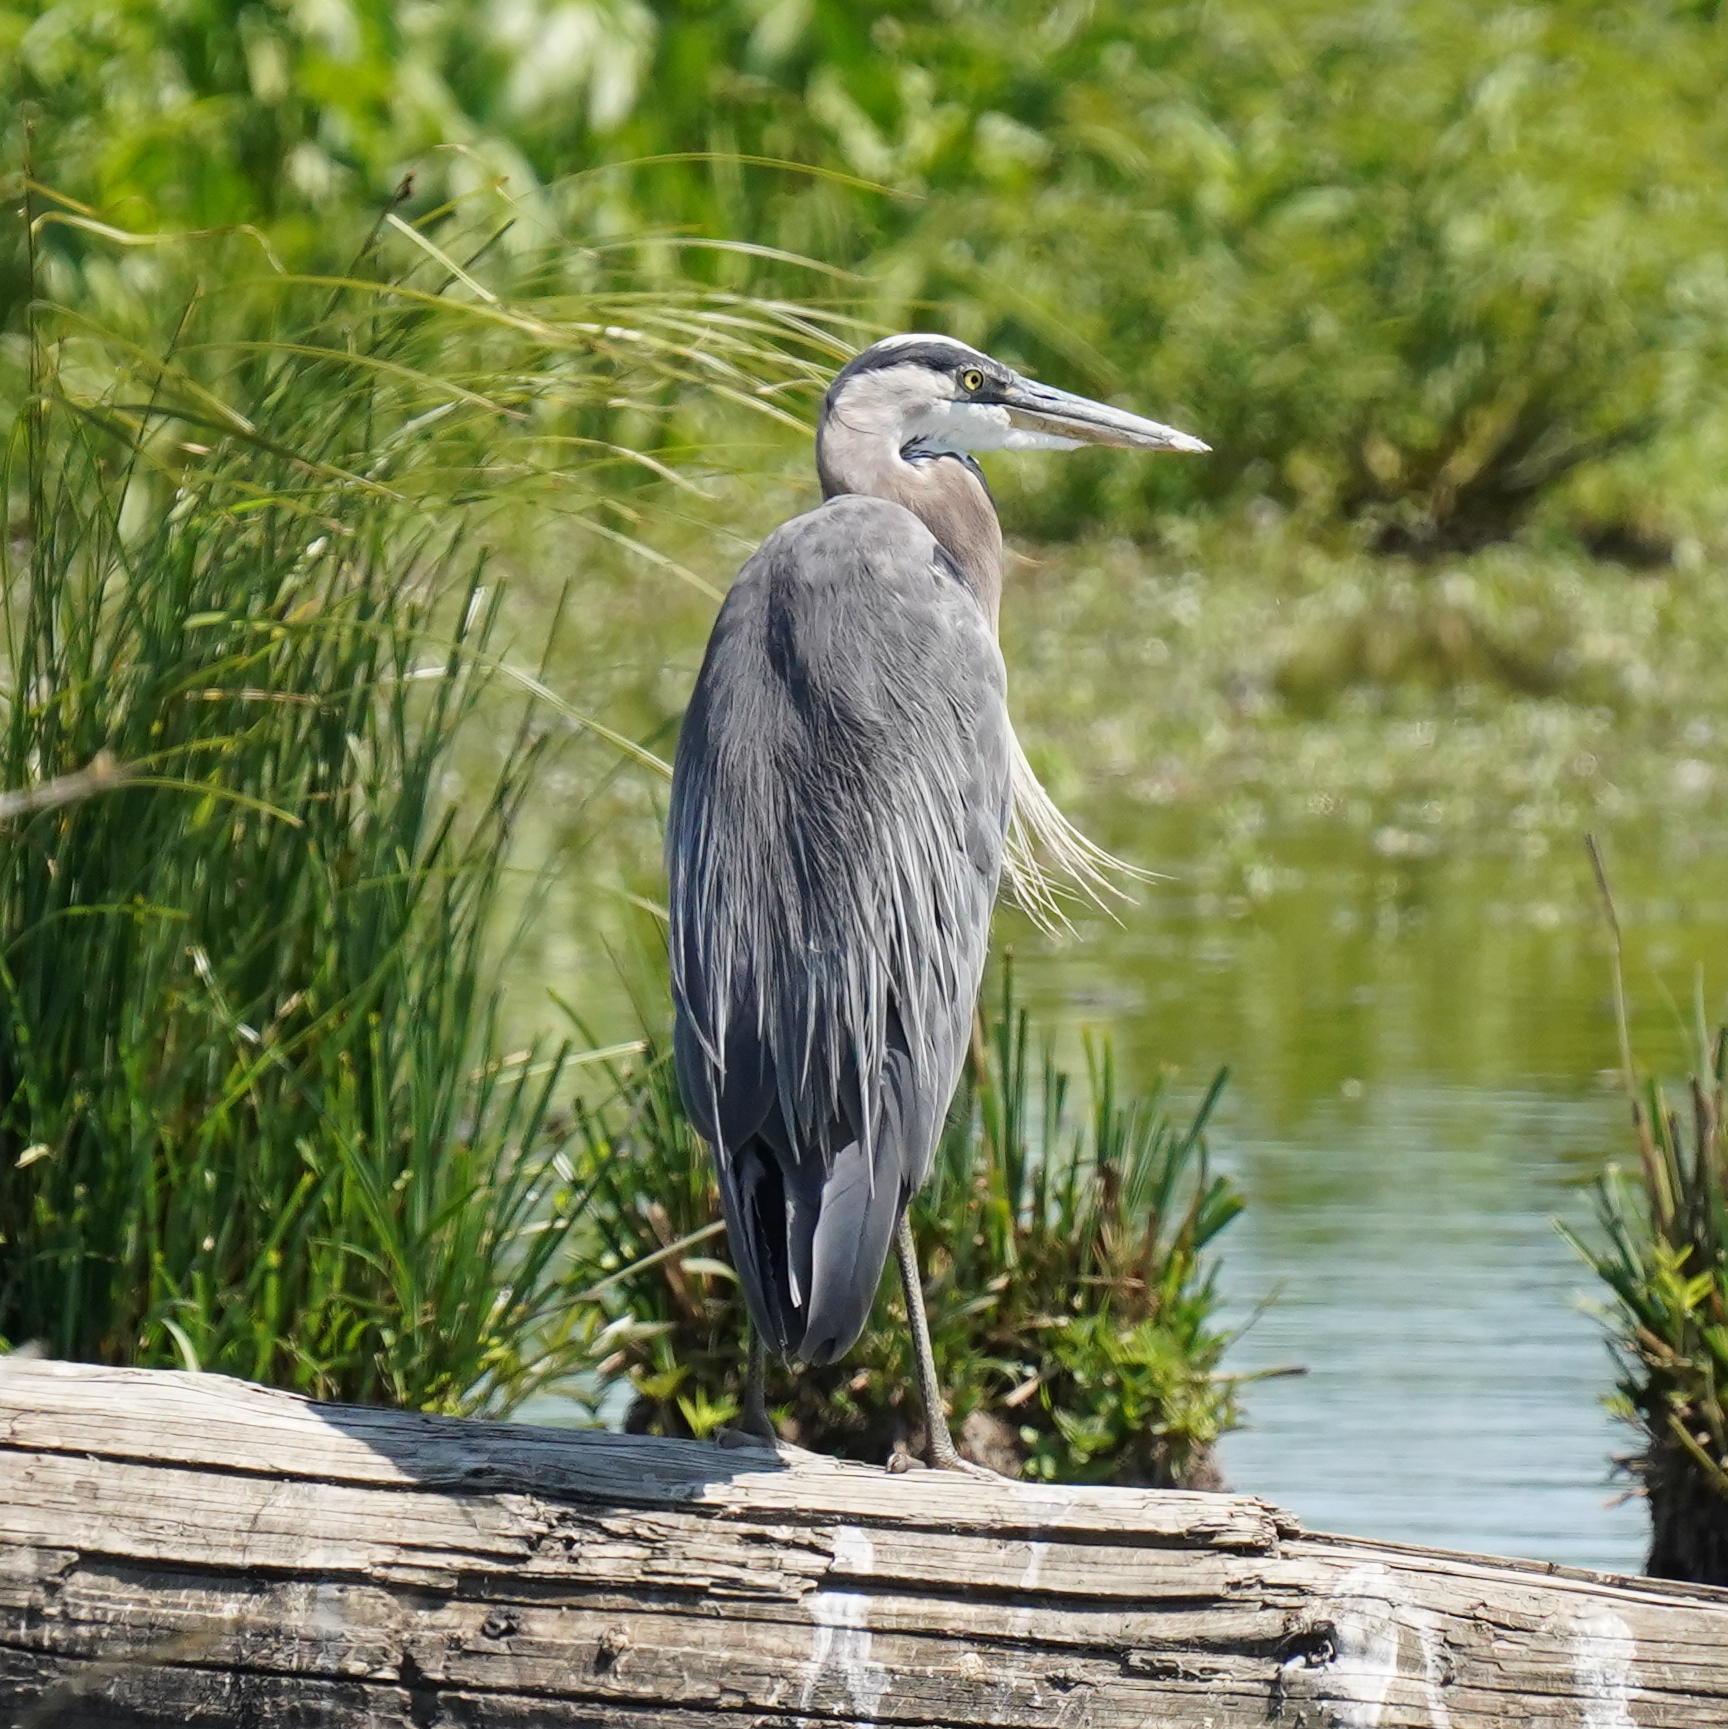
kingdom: Animalia
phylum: Chordata
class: Aves
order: Pelecaniformes
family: Ardeidae
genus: Ardea
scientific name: Ardea herodias
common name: Great blue heron
